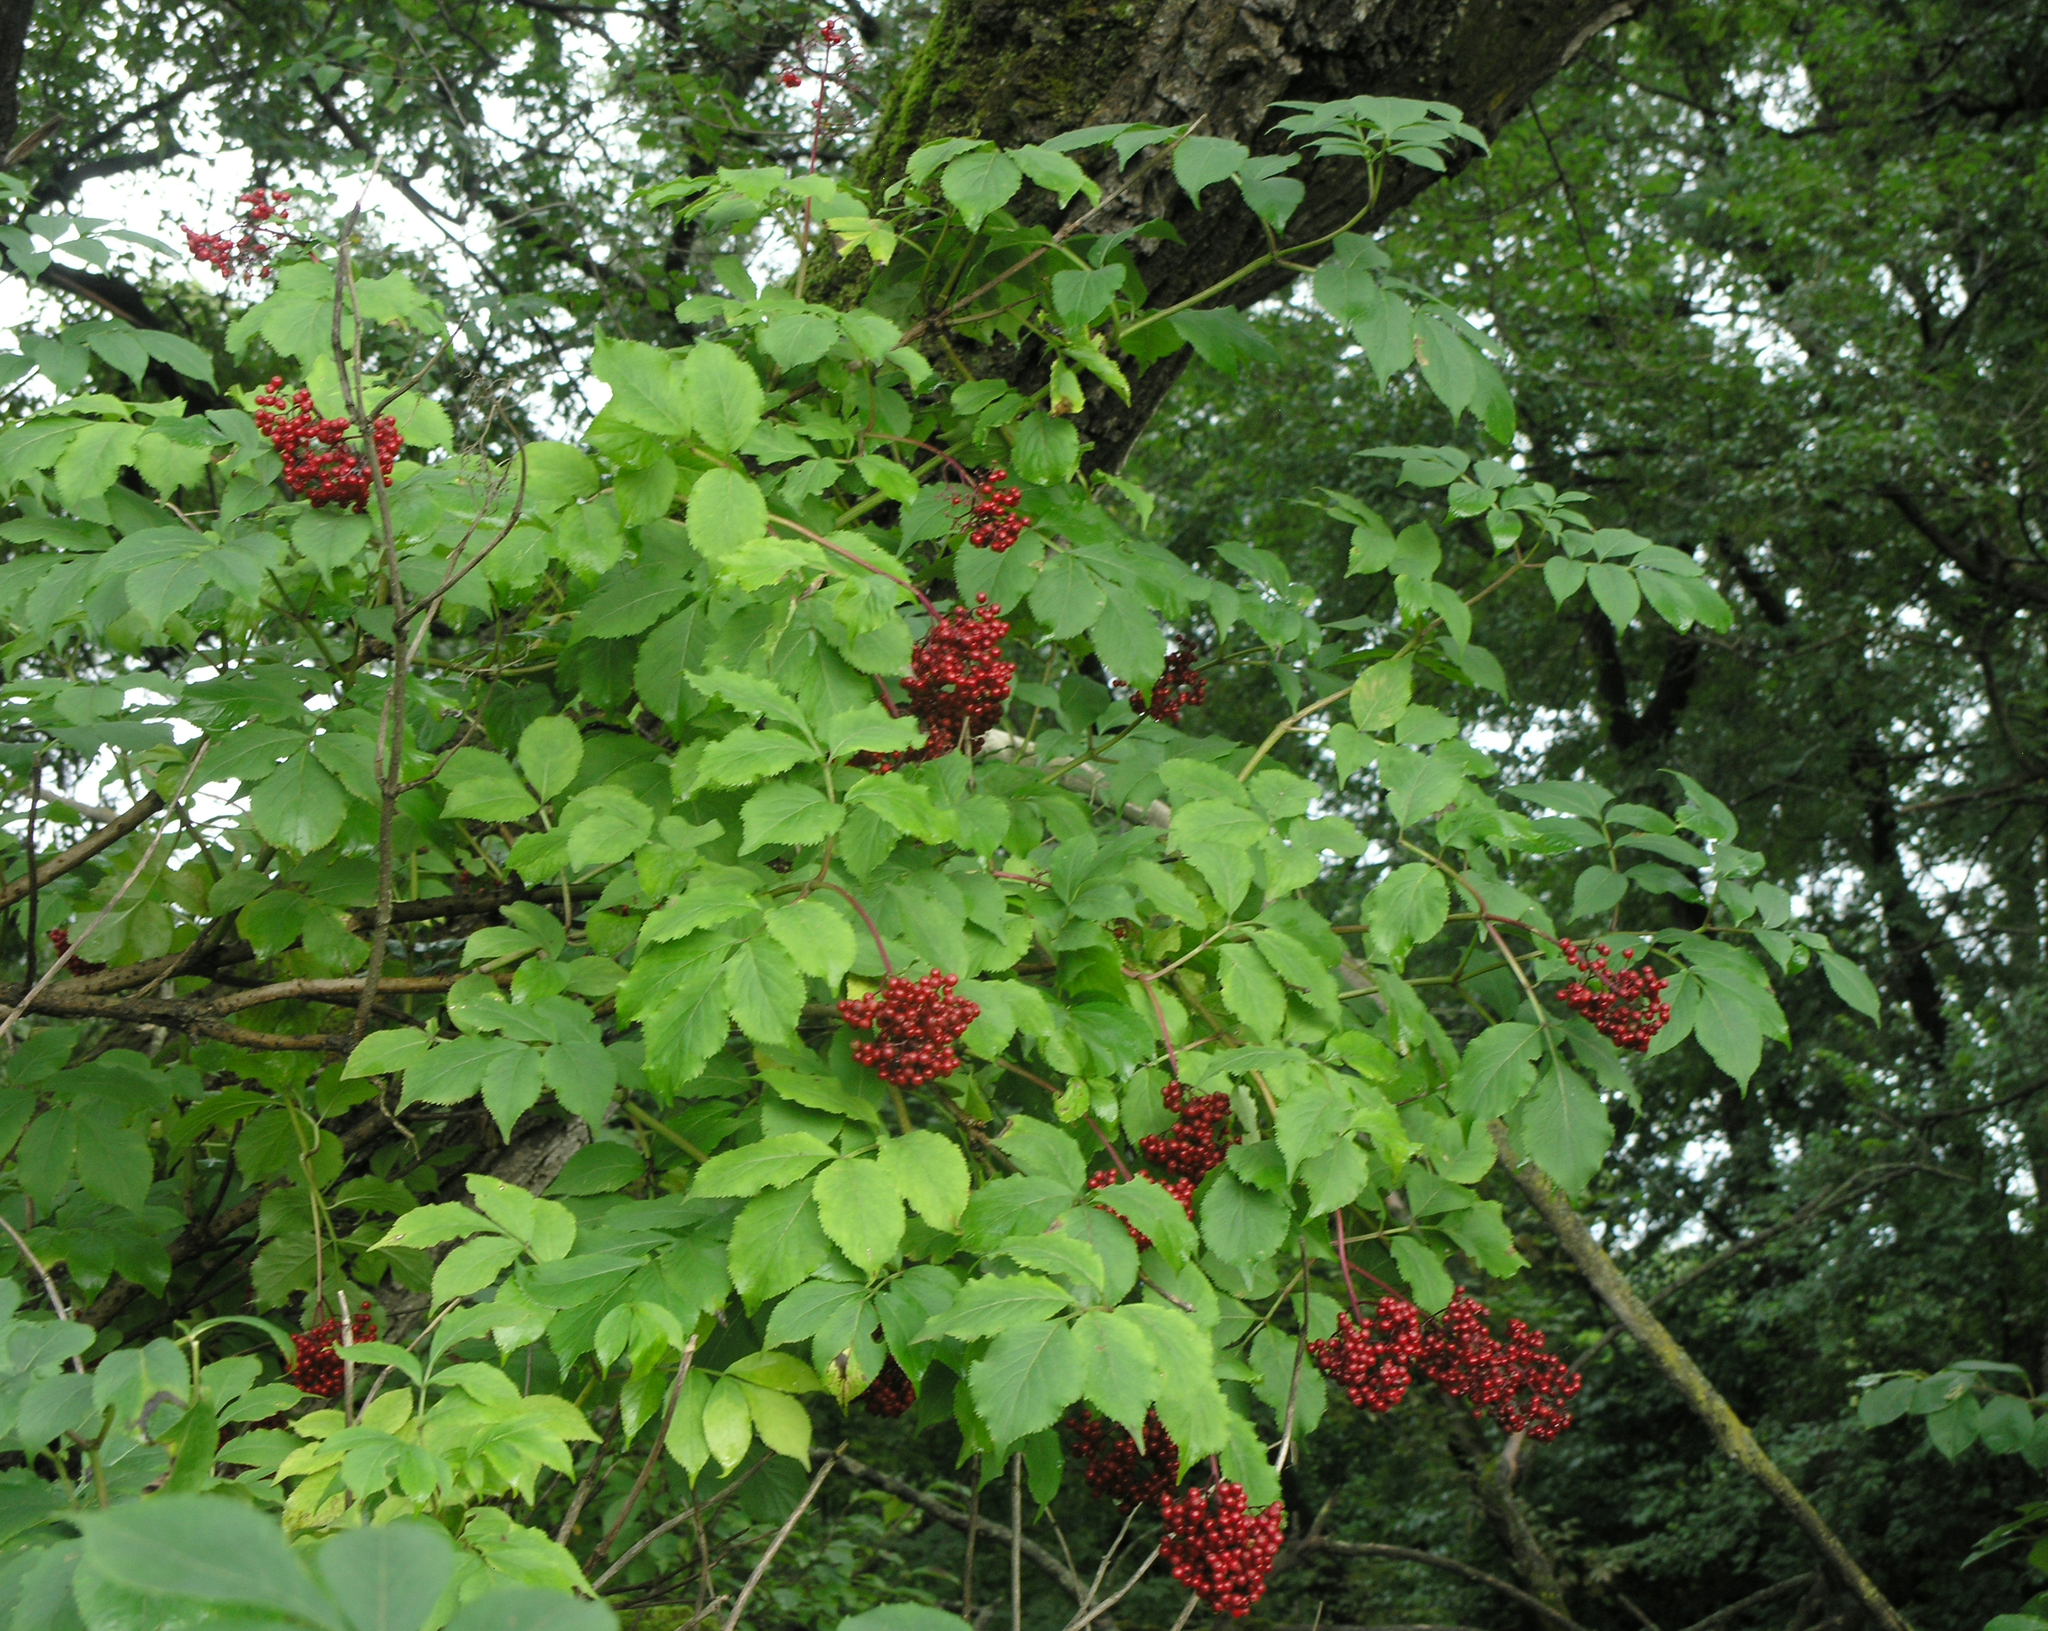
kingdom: Plantae
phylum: Tracheophyta
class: Magnoliopsida
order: Dipsacales
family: Viburnaceae
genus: Sambucus
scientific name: Sambucus williamsii
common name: William's elder
